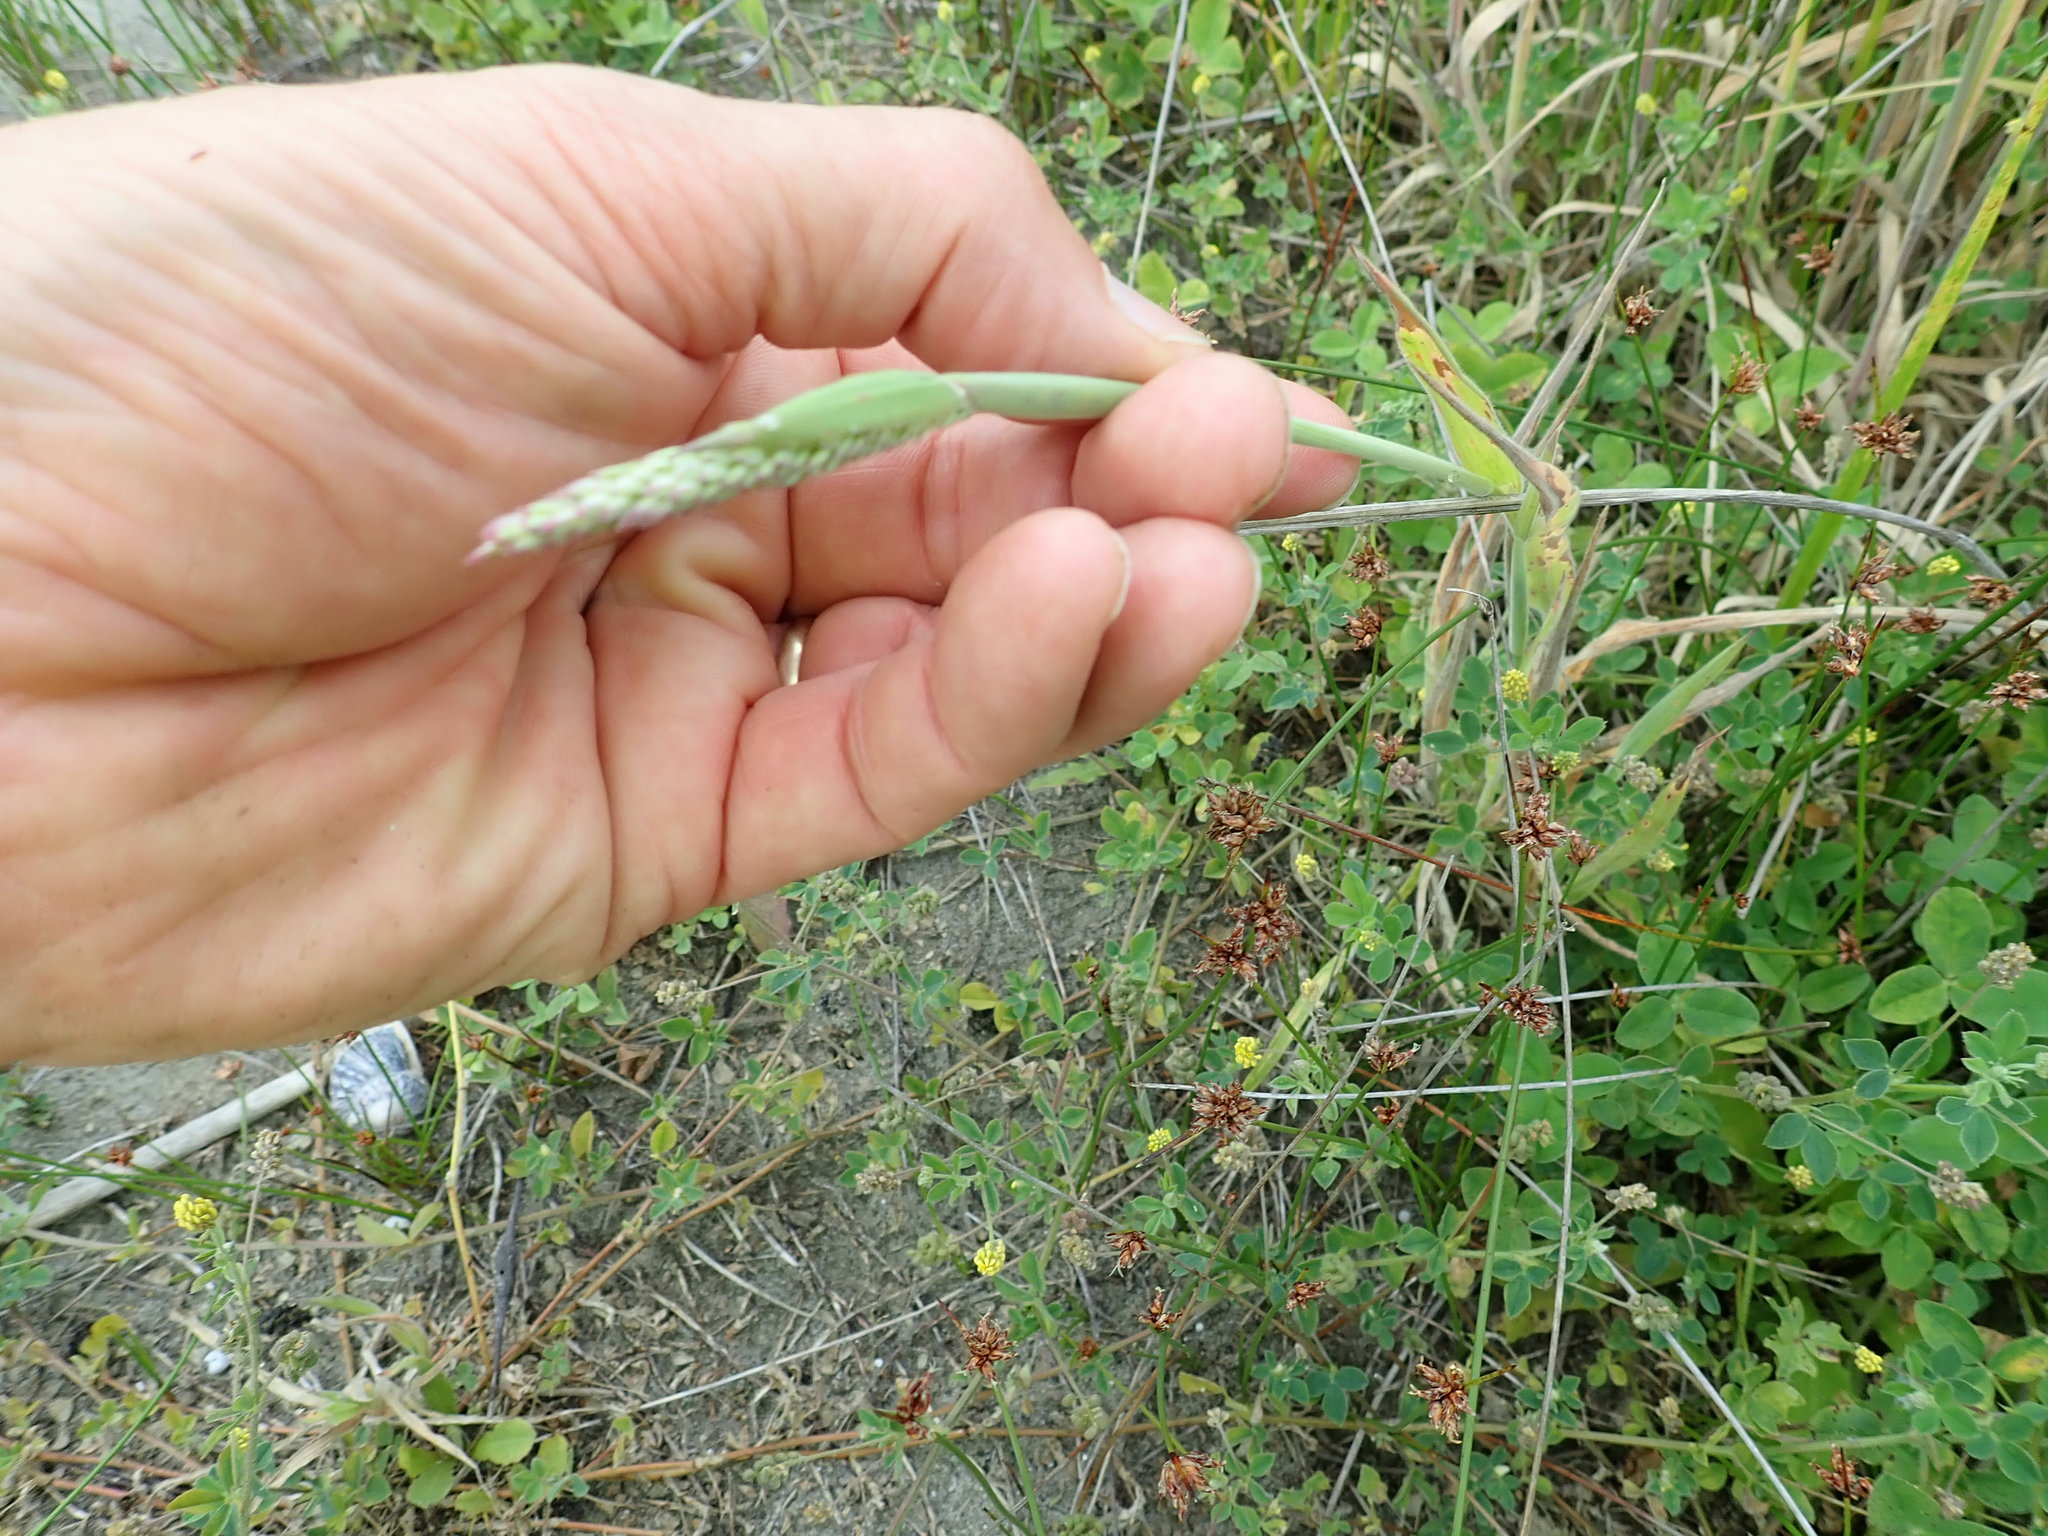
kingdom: Plantae
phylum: Tracheophyta
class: Liliopsida
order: Poales
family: Poaceae
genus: Holcus
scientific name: Holcus lanatus
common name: Yorkshire-fog
